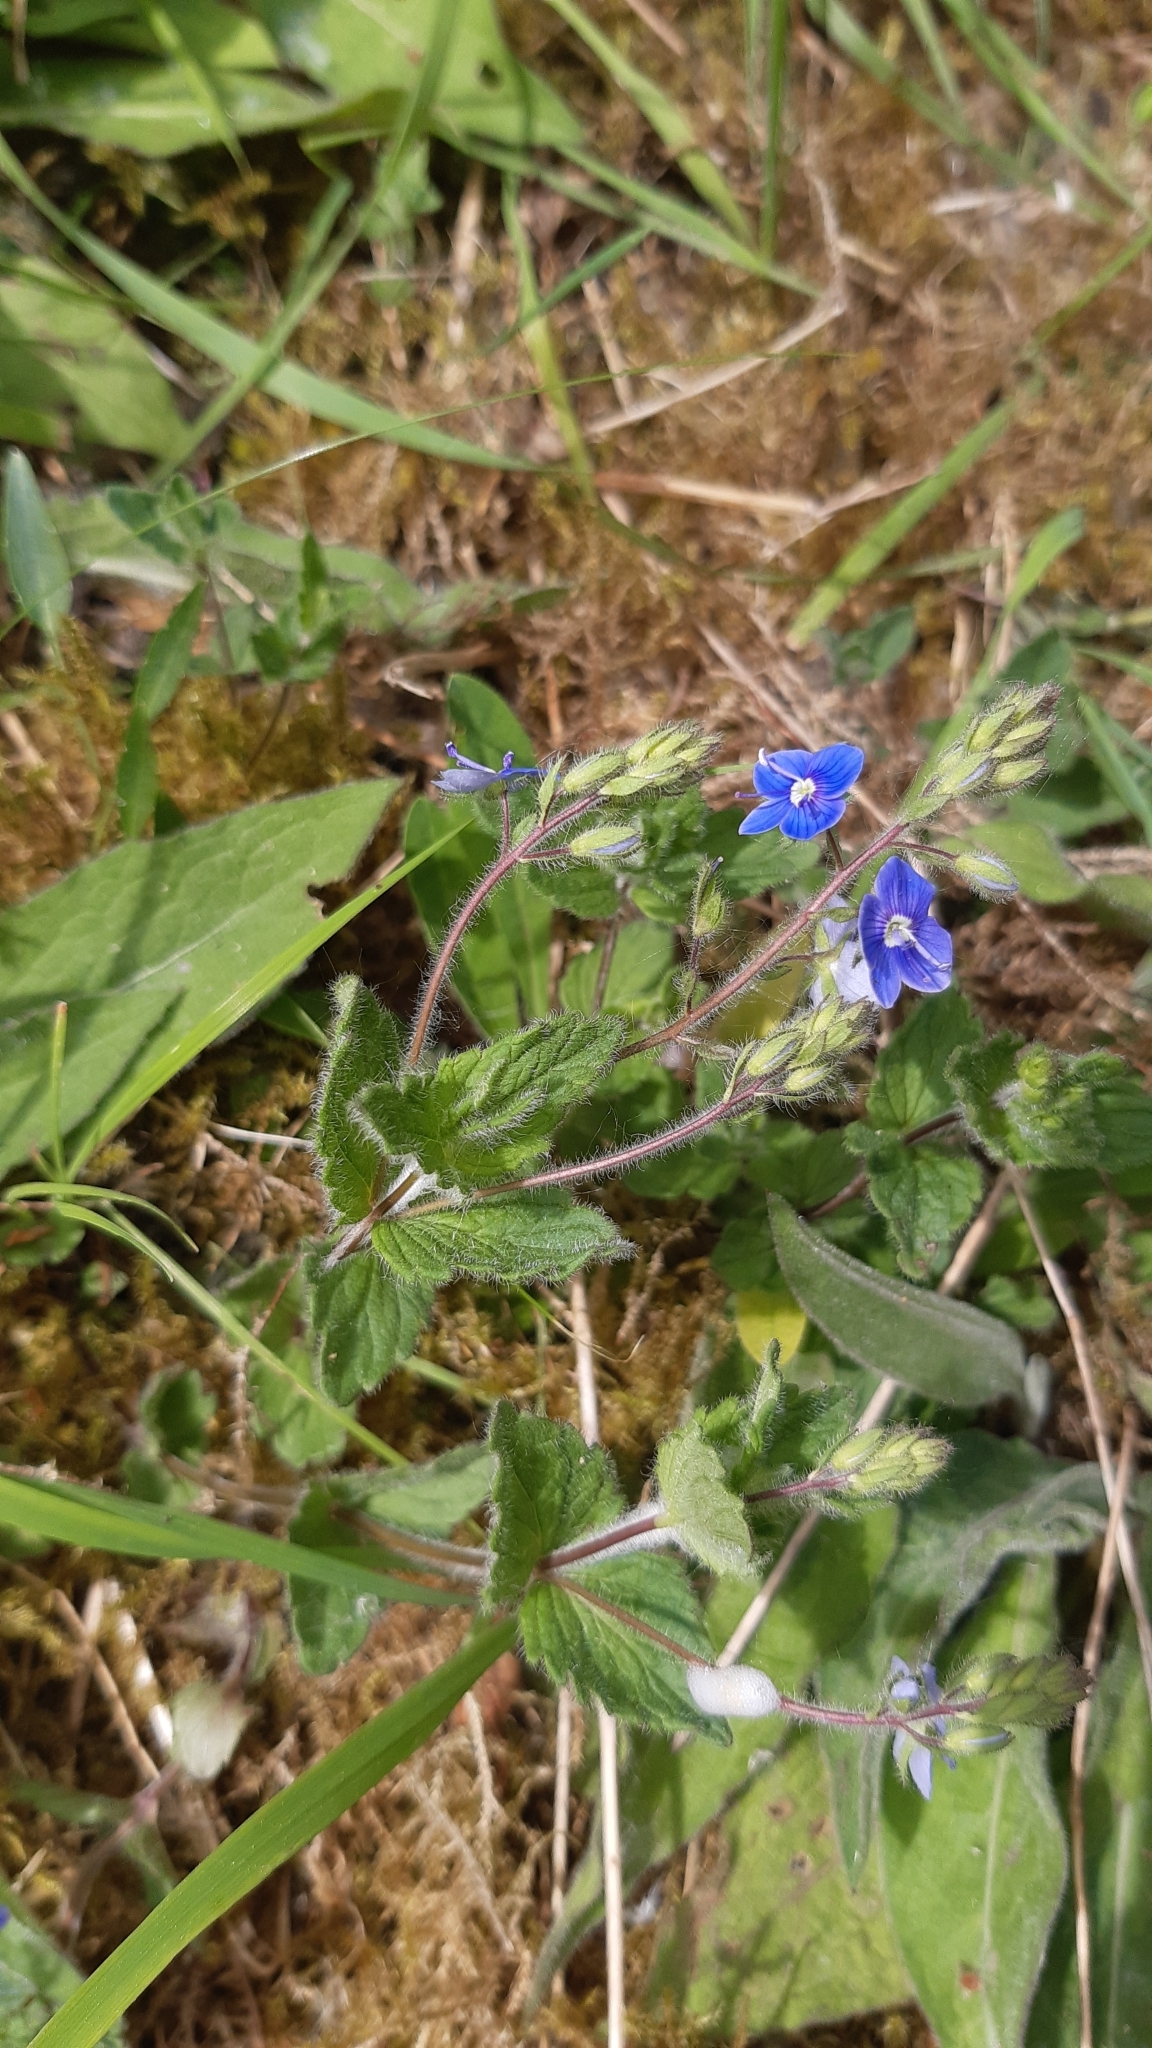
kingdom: Plantae
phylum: Tracheophyta
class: Magnoliopsida
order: Lamiales
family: Plantaginaceae
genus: Veronica
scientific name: Veronica chamaedrys
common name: Germander speedwell
